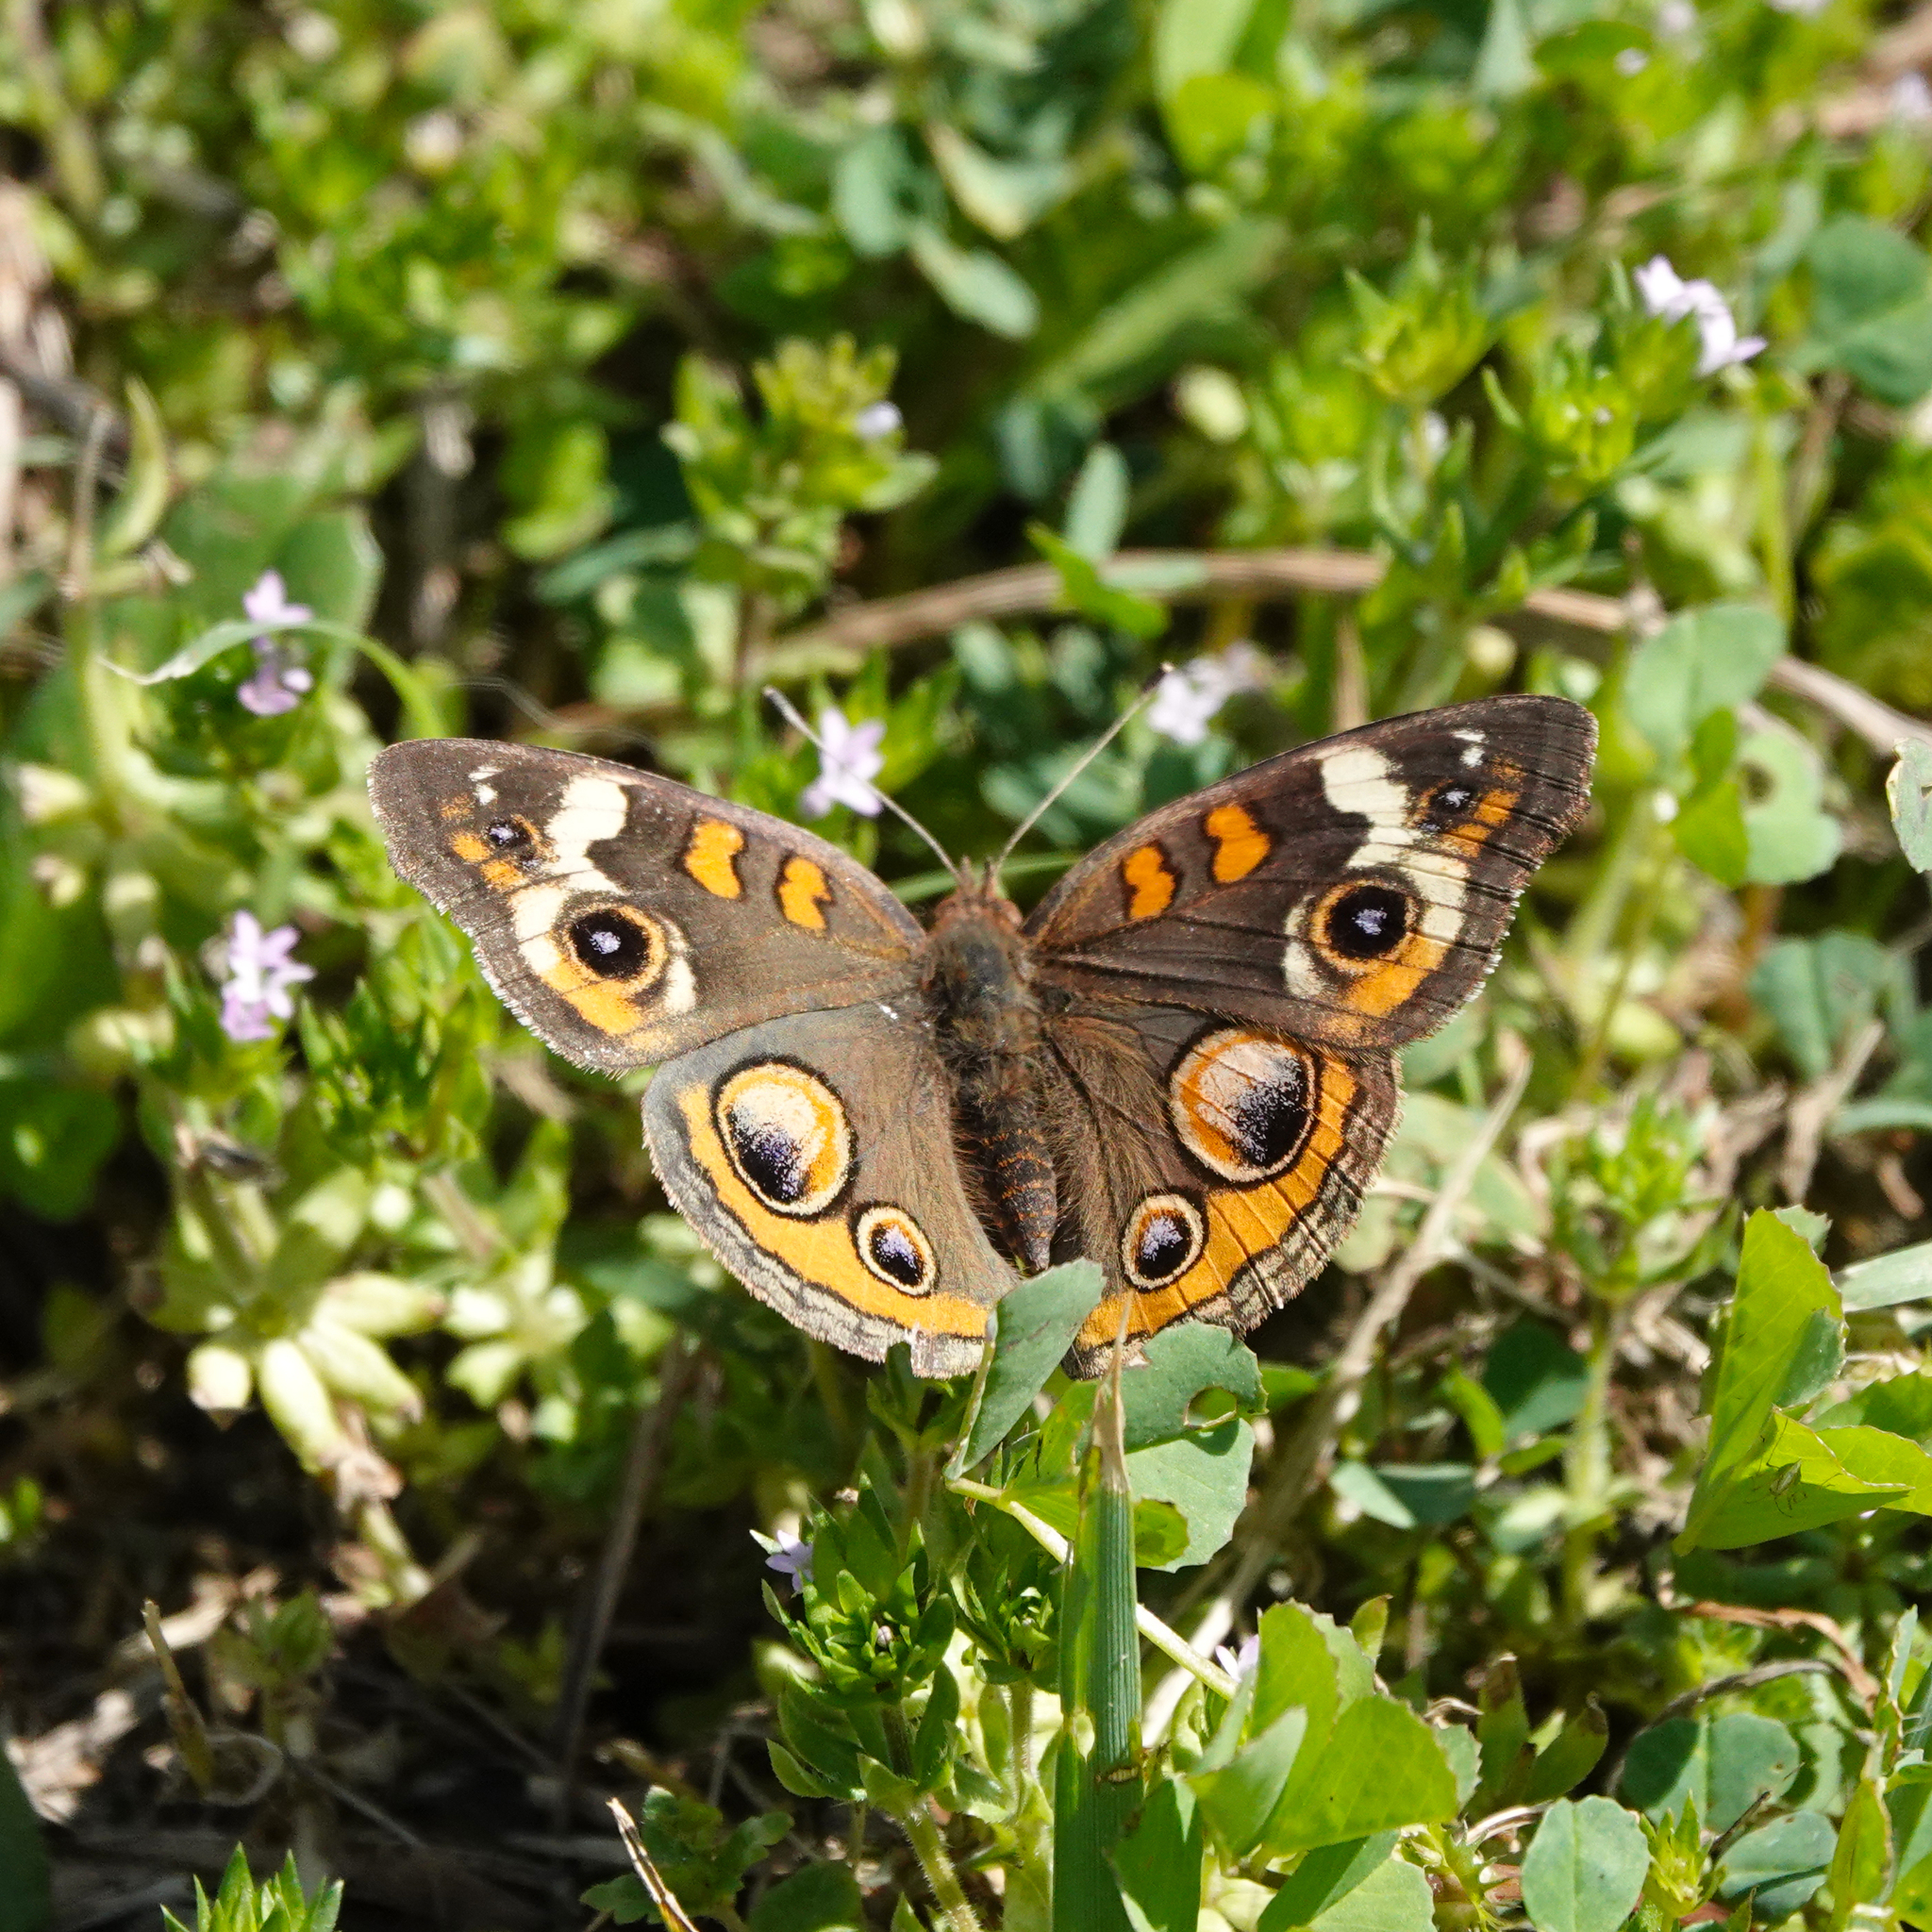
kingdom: Animalia
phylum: Arthropoda
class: Insecta
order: Lepidoptera
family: Nymphalidae
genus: Junonia
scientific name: Junonia coenia
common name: Common buckeye
